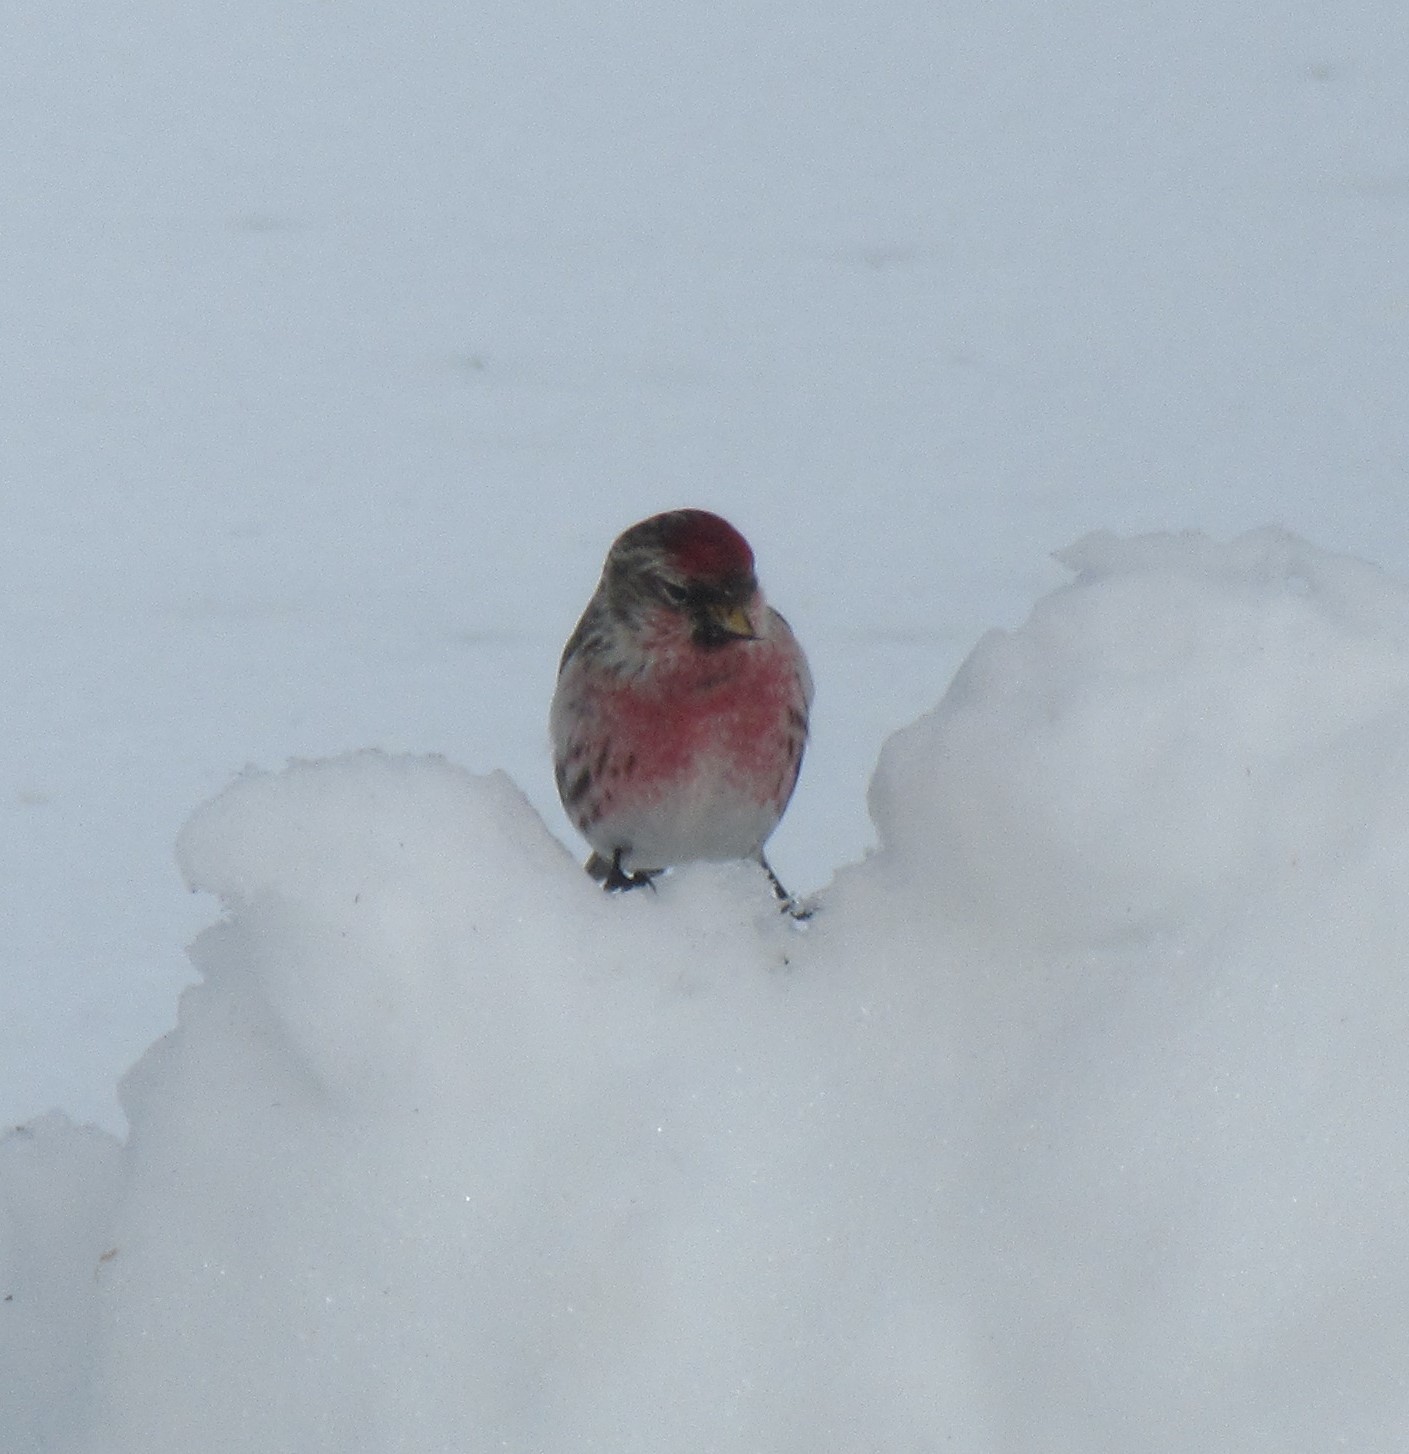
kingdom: Animalia
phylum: Chordata
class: Aves
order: Passeriformes
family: Fringillidae
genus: Acanthis
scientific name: Acanthis flammea
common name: Common redpoll
